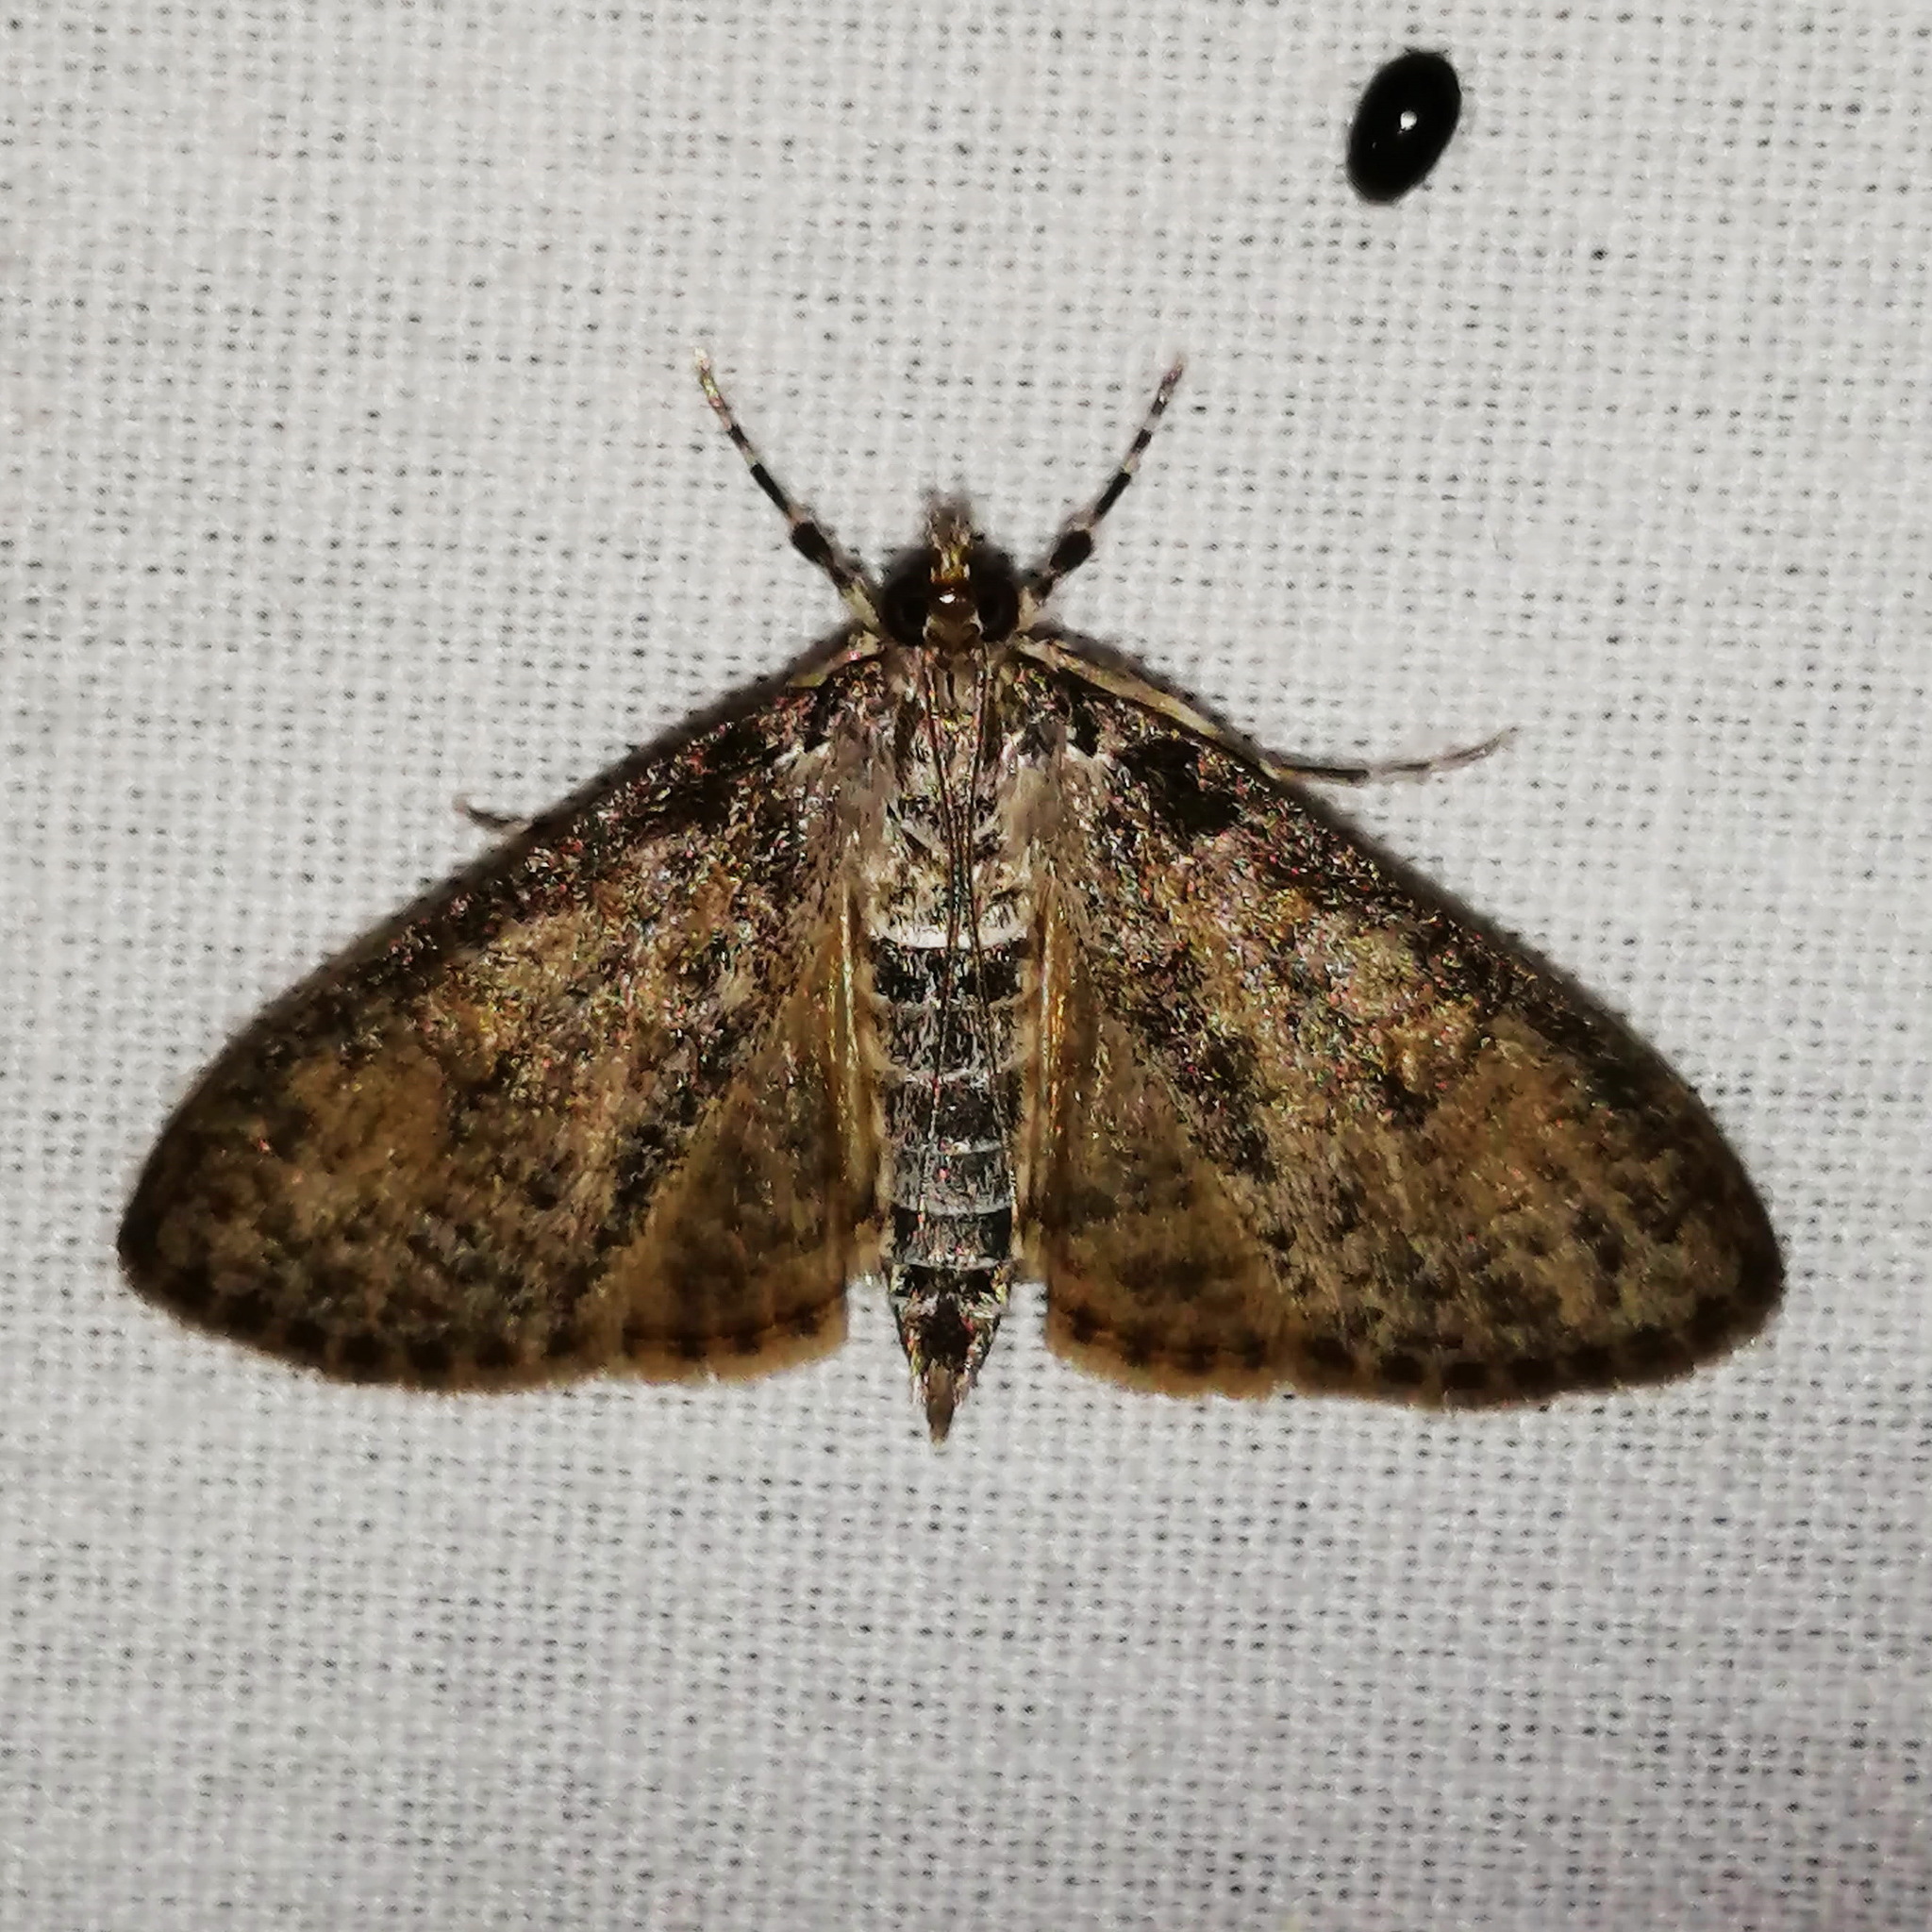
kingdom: Animalia
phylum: Arthropoda
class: Insecta
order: Lepidoptera
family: Crambidae
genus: Palpita
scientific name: Palpita arsaltealis
